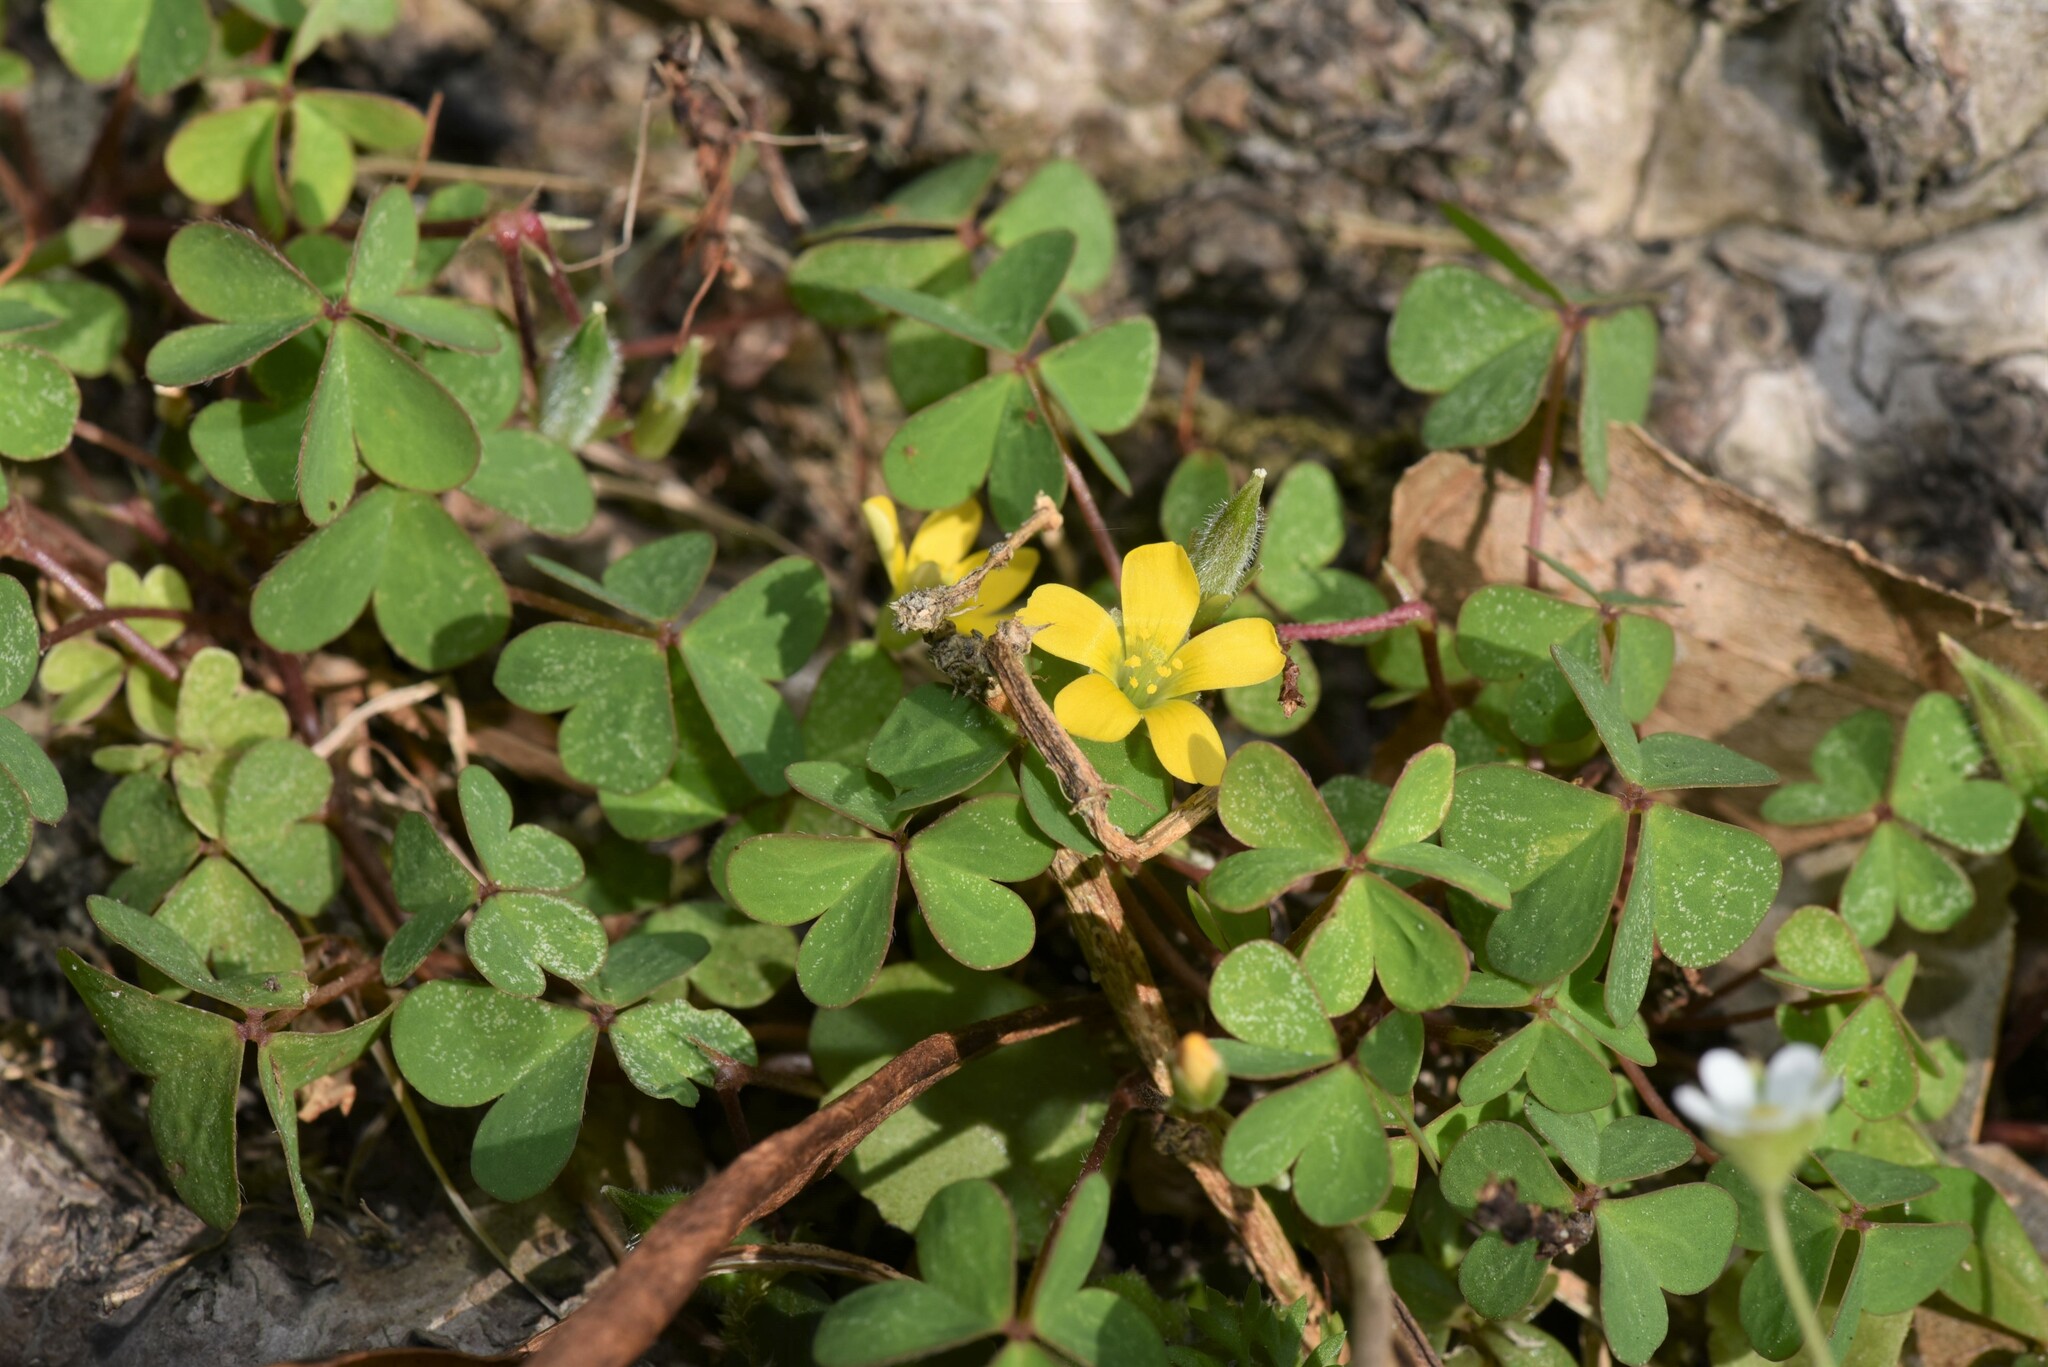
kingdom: Plantae
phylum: Tracheophyta
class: Magnoliopsida
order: Oxalidales
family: Oxalidaceae
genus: Oxalis
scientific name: Oxalis corniculata
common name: Procumbent yellow-sorrel
